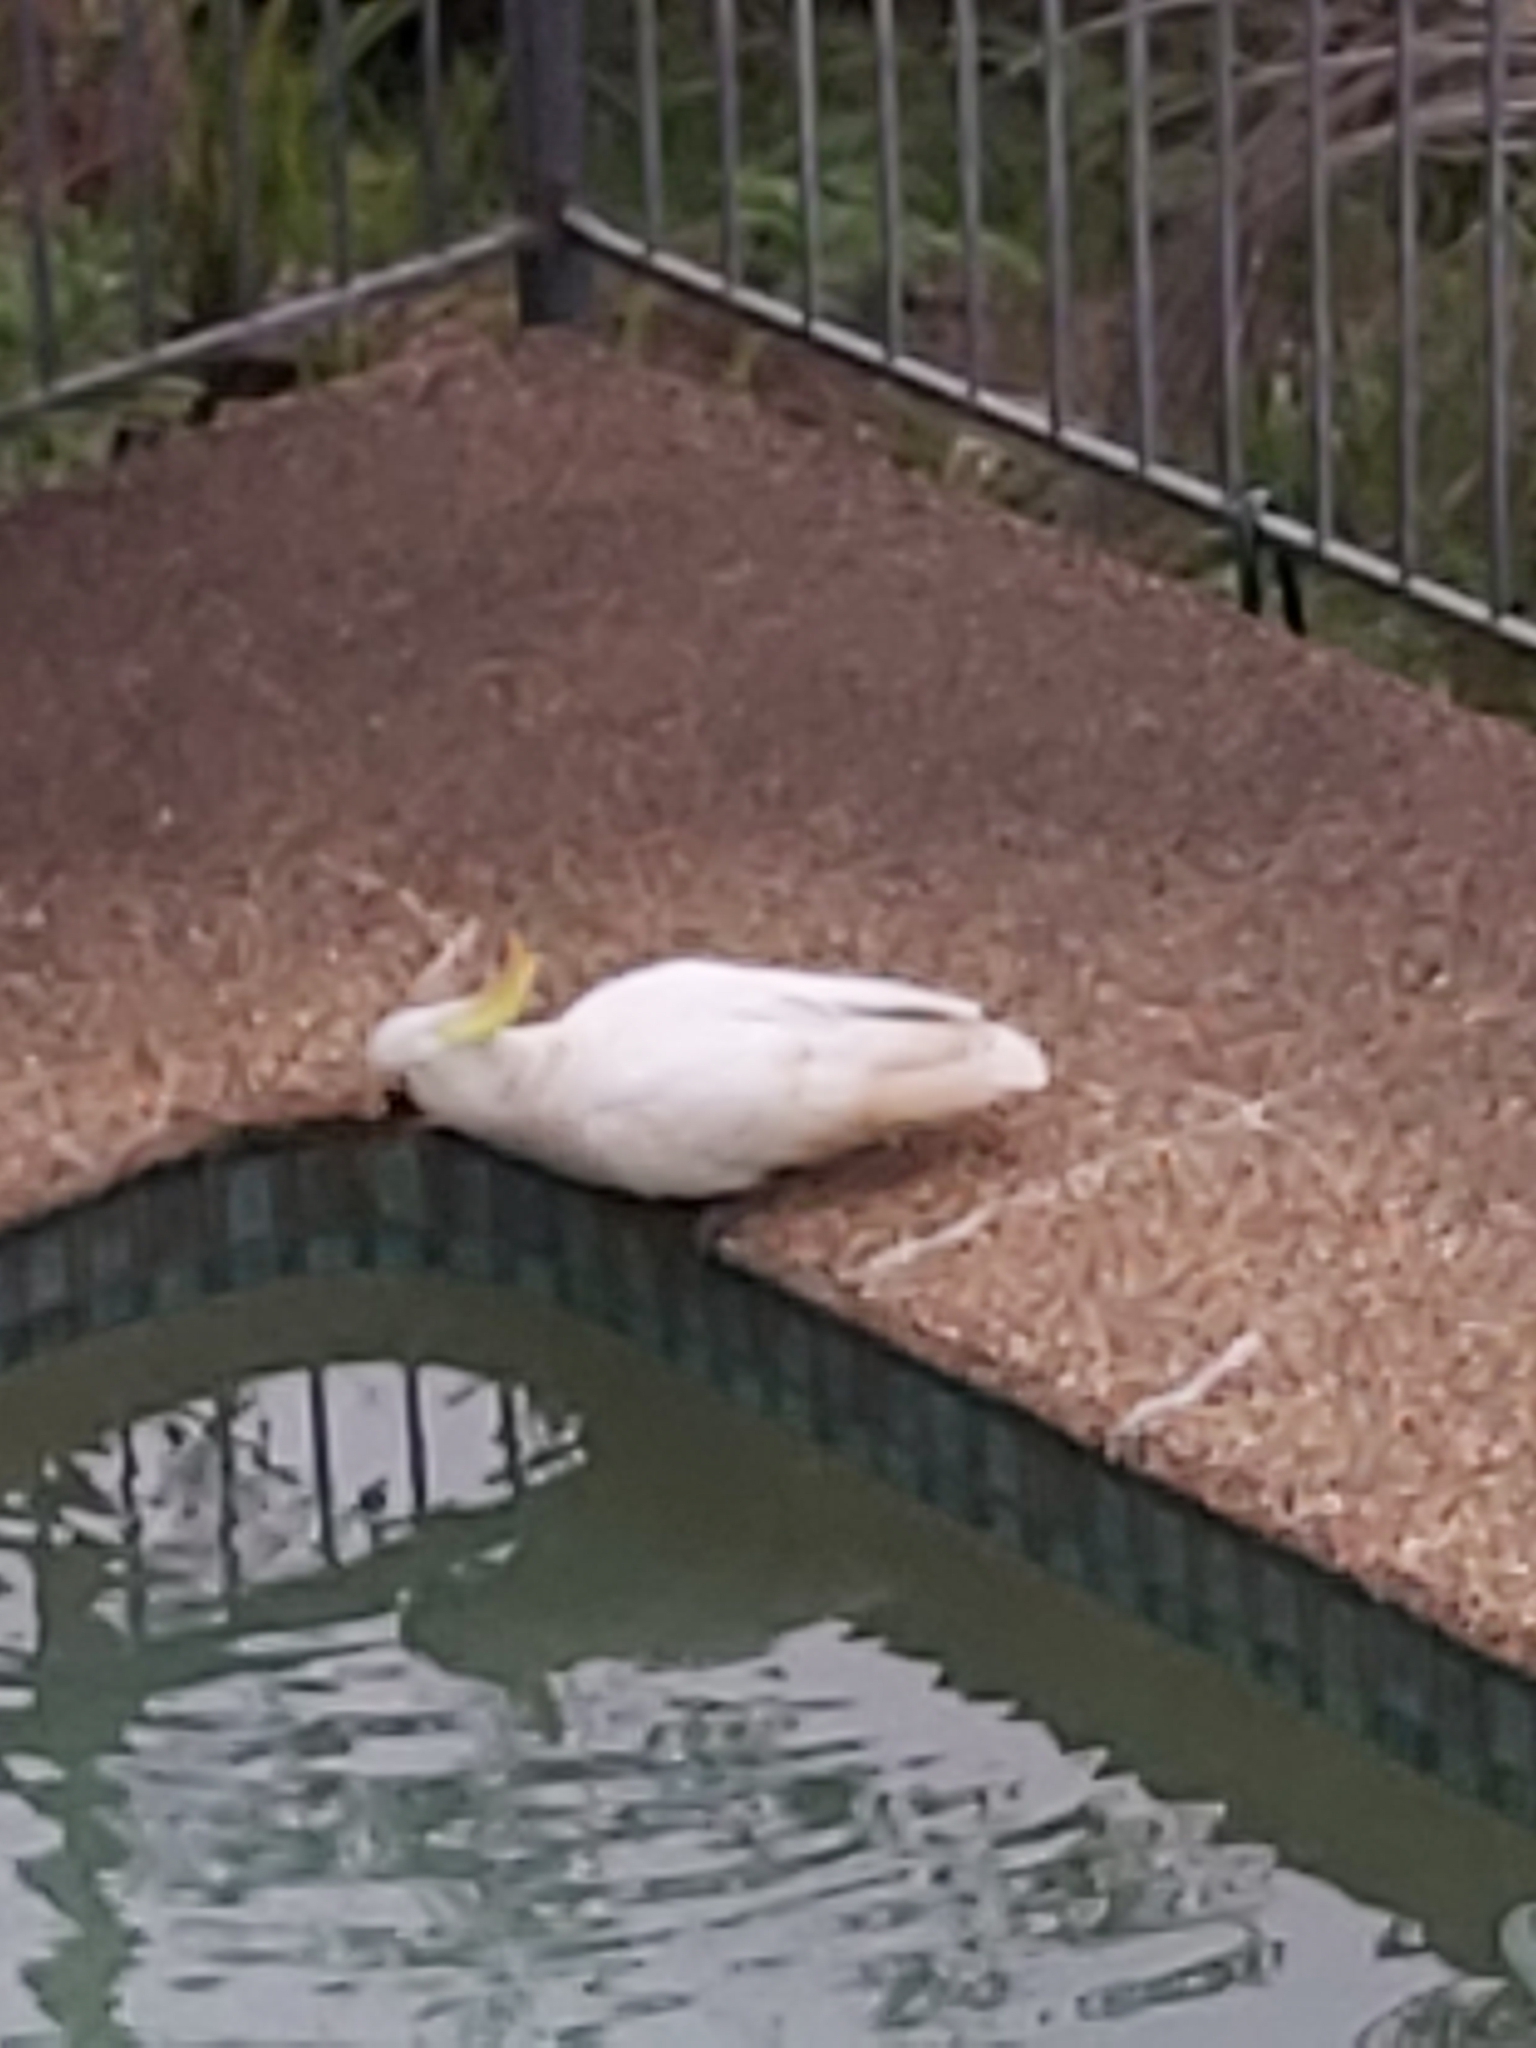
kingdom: Animalia
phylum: Chordata
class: Aves
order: Psittaciformes
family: Psittacidae
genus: Cacatua
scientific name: Cacatua galerita
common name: Sulphur-crested cockatoo
